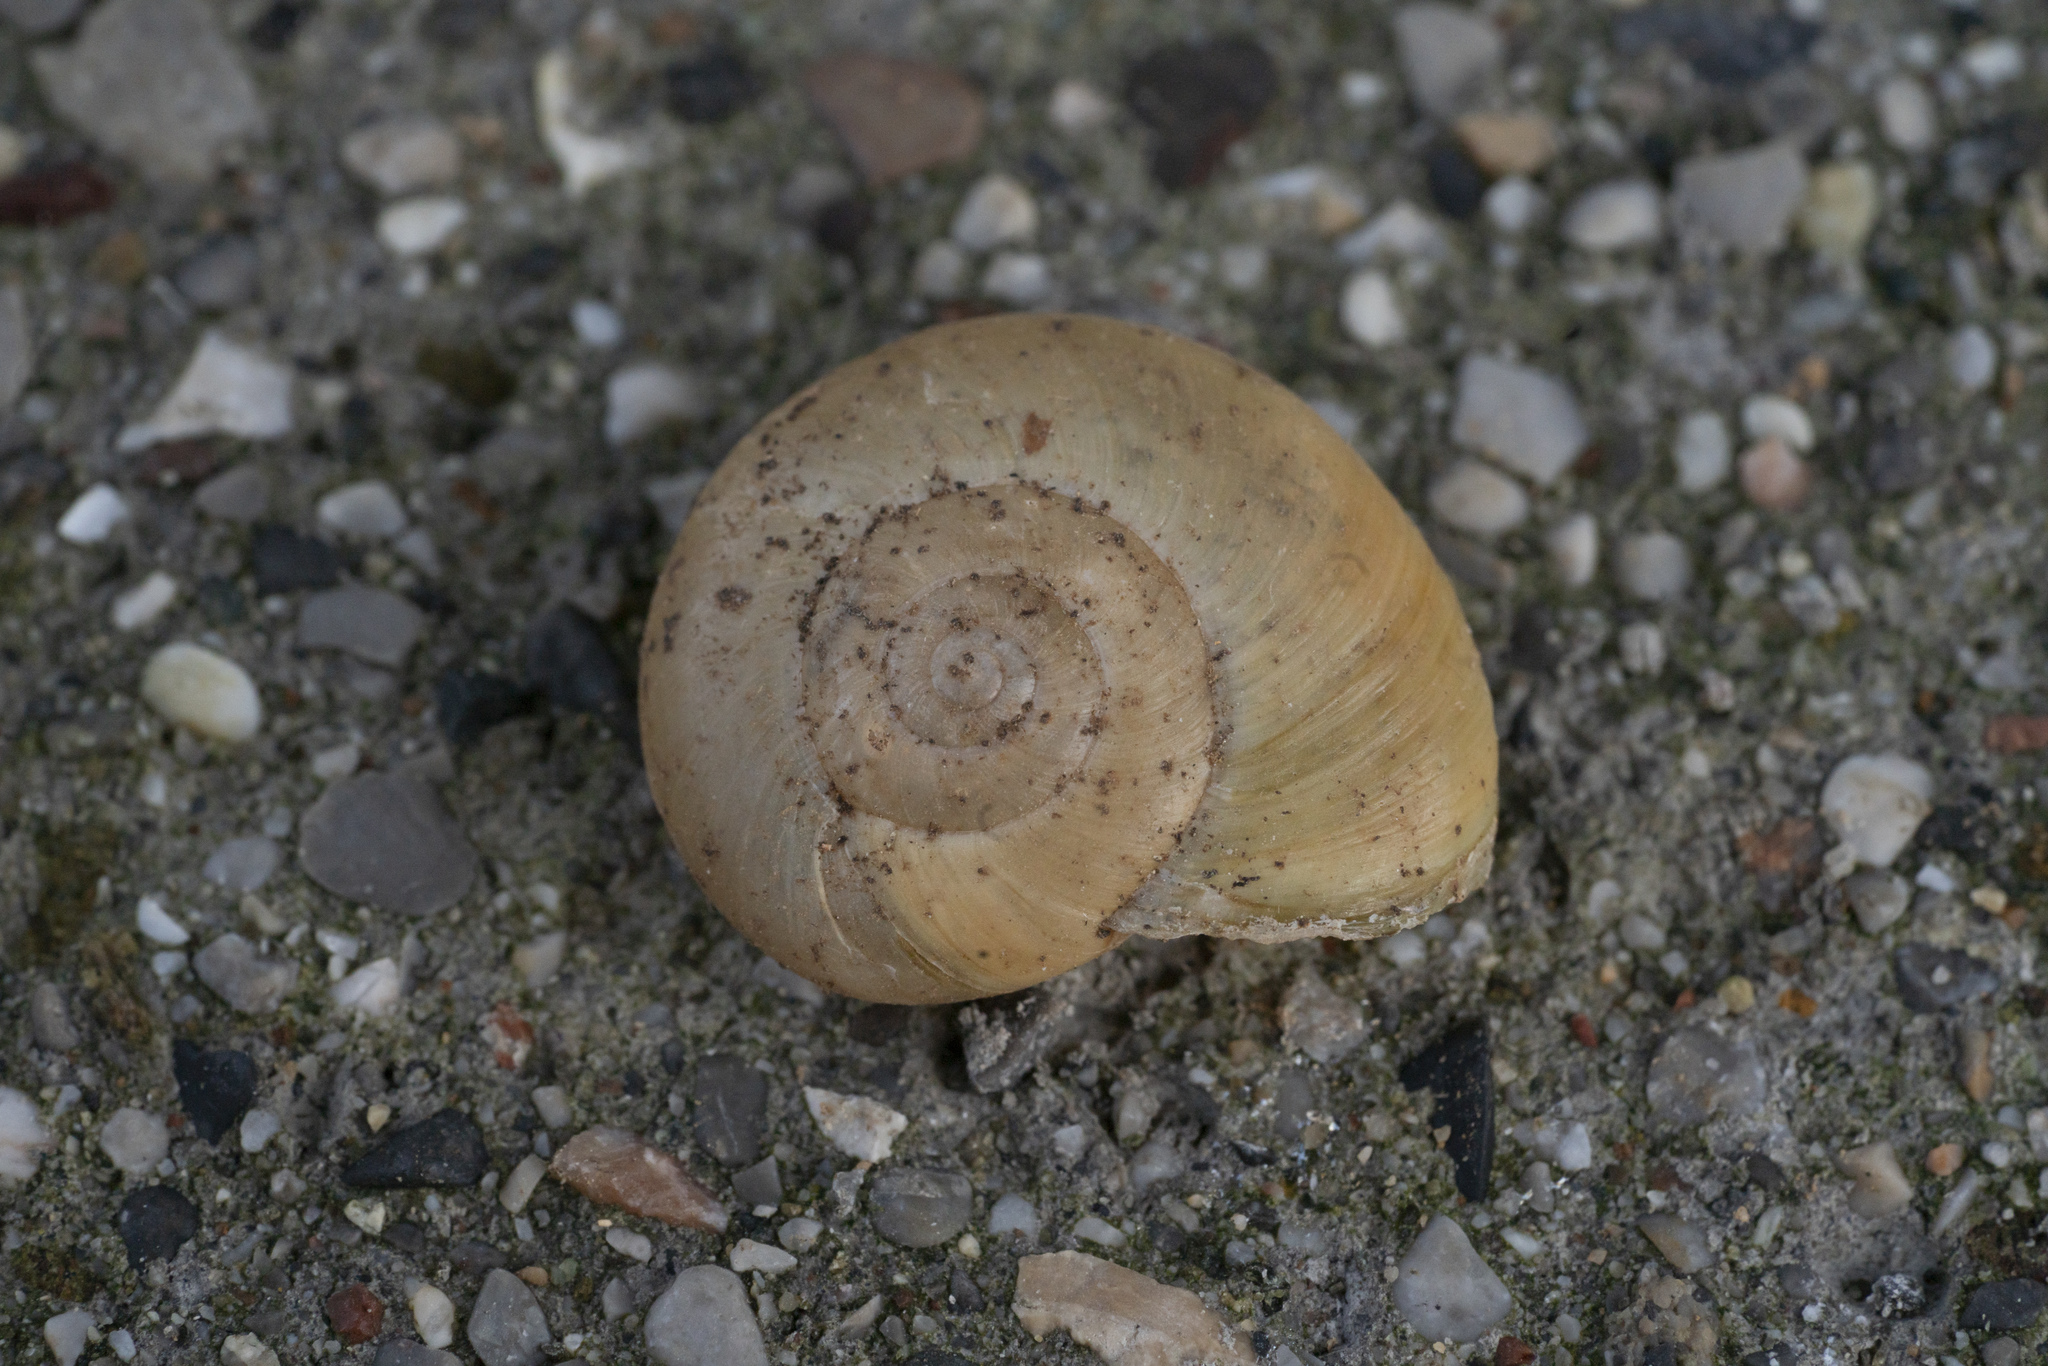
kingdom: Animalia
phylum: Mollusca
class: Gastropoda
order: Stylommatophora
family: Oxychilidae
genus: Eopolita
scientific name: Eopolita protensa
